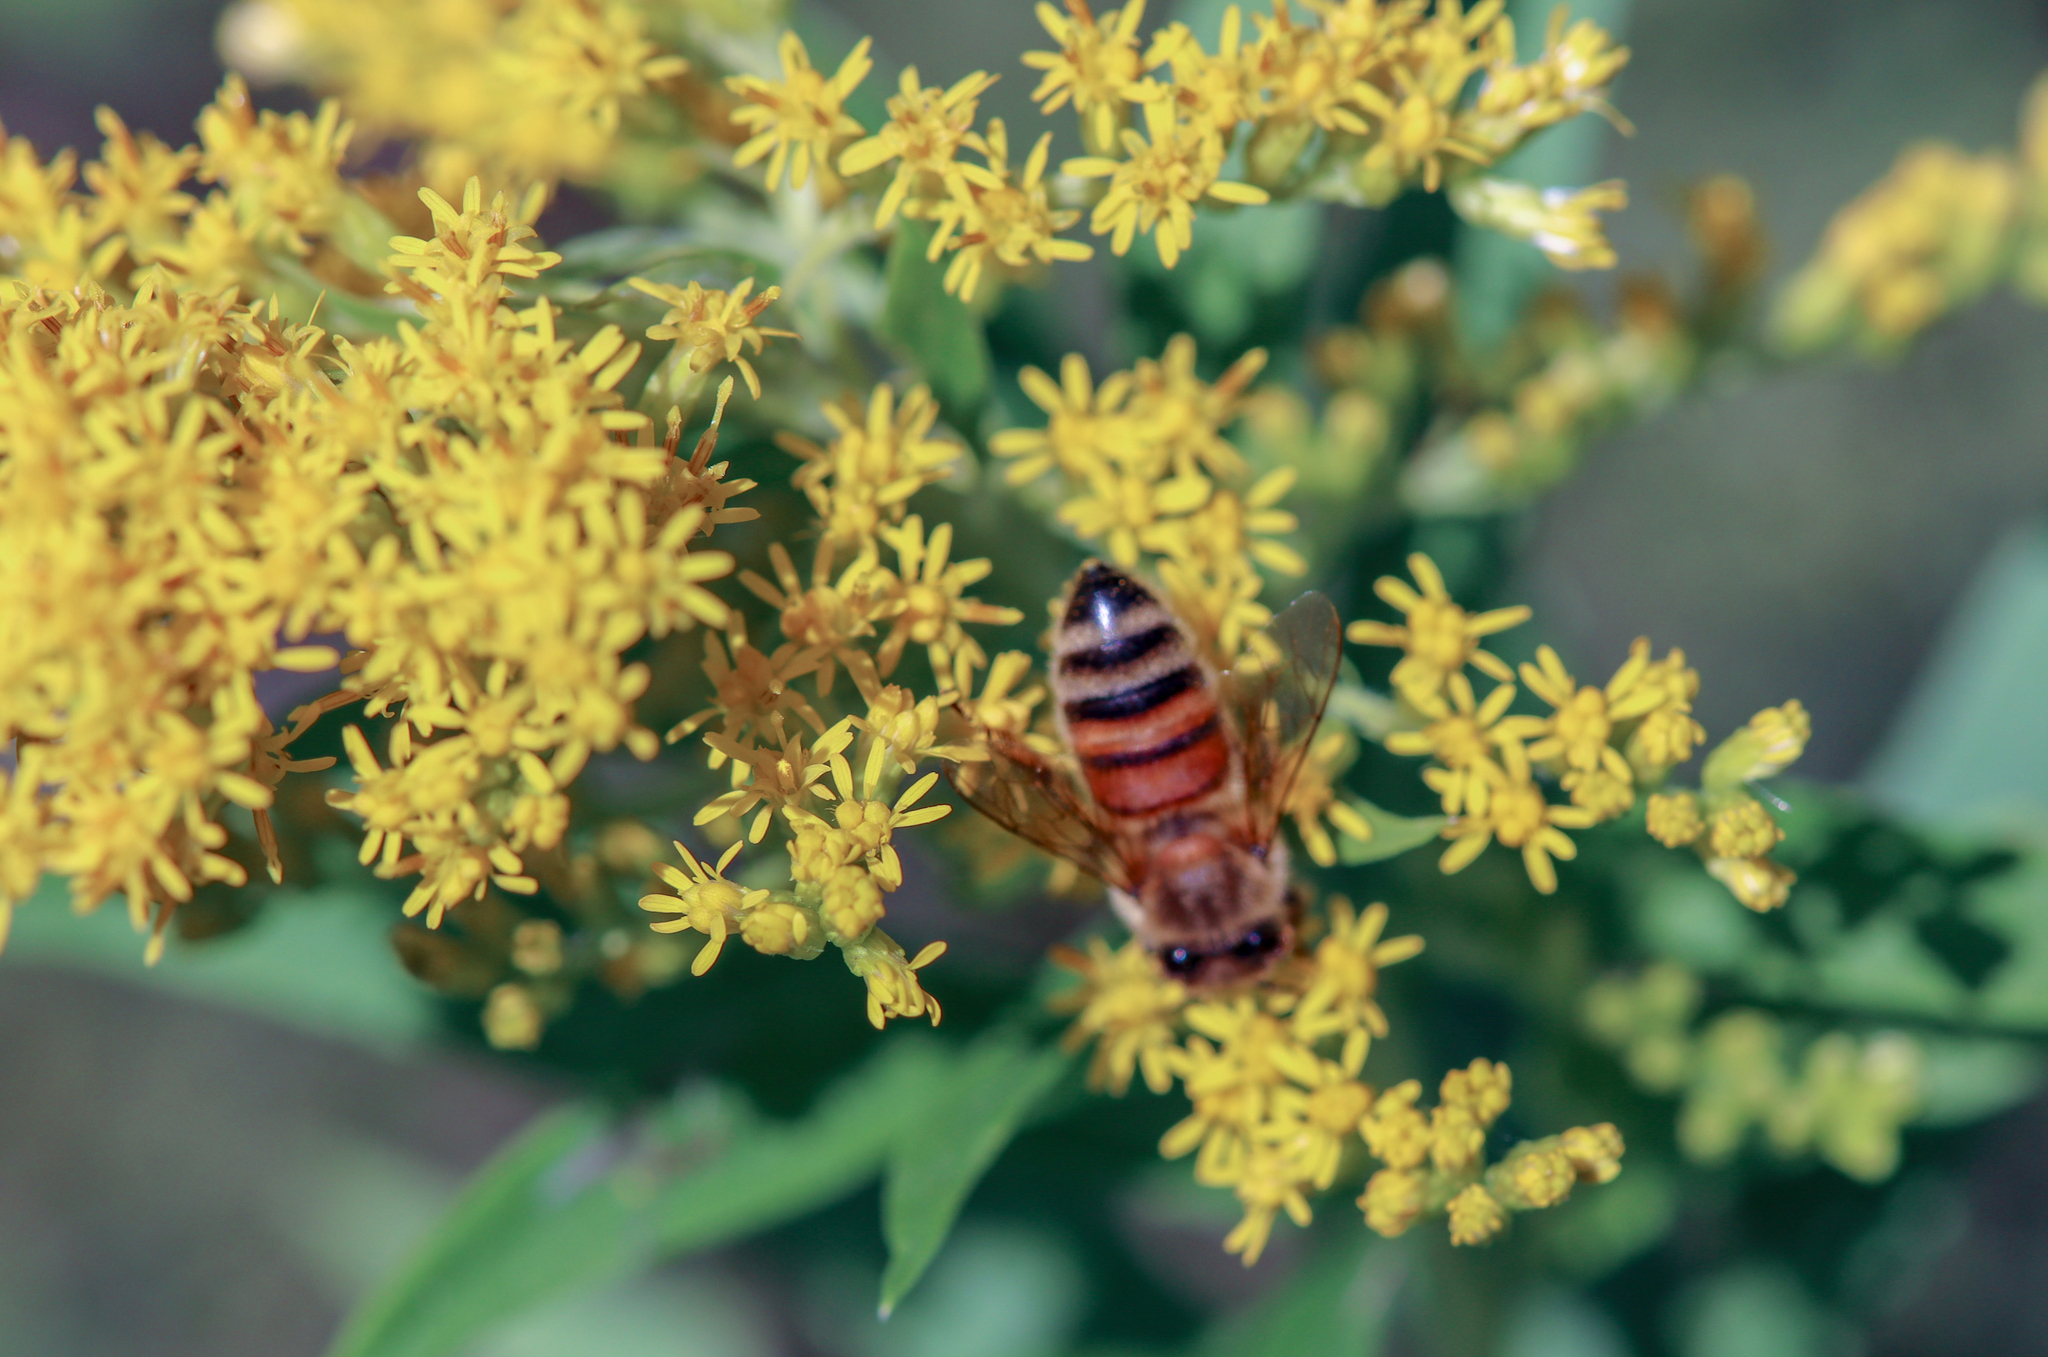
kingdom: Animalia
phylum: Arthropoda
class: Insecta
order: Hymenoptera
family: Apidae
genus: Apis
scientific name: Apis mellifera
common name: Honey bee
